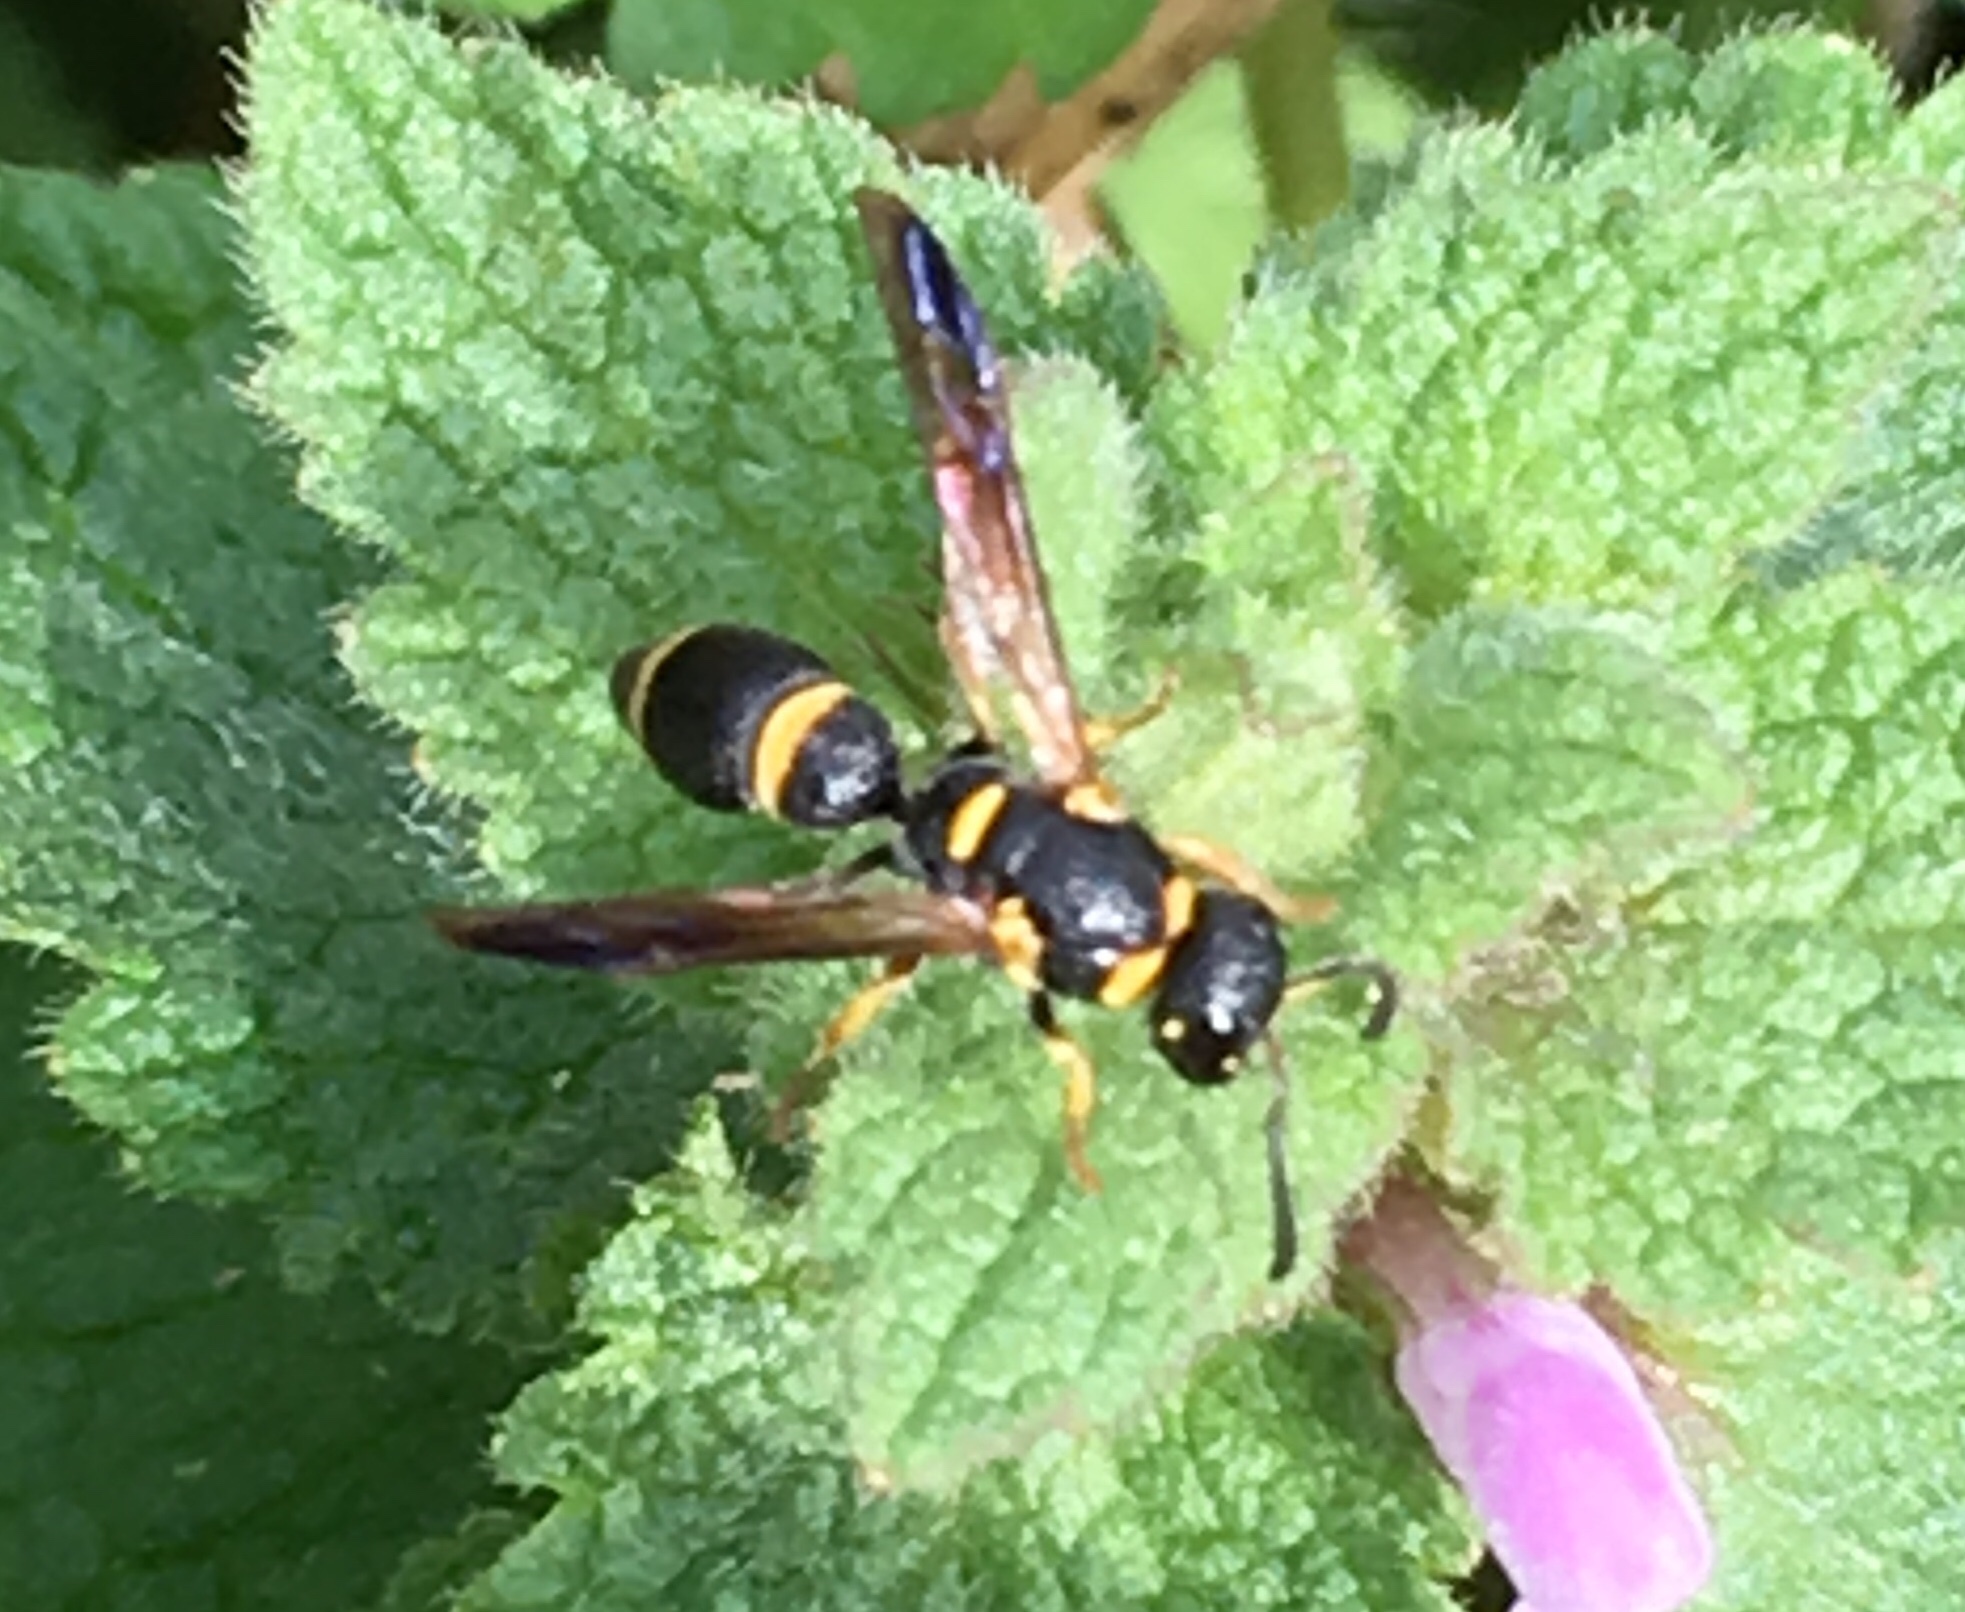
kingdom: Animalia
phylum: Arthropoda
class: Insecta
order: Hymenoptera
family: Eumenidae
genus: Parancistrocerus
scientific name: Parancistrocerus perennis
